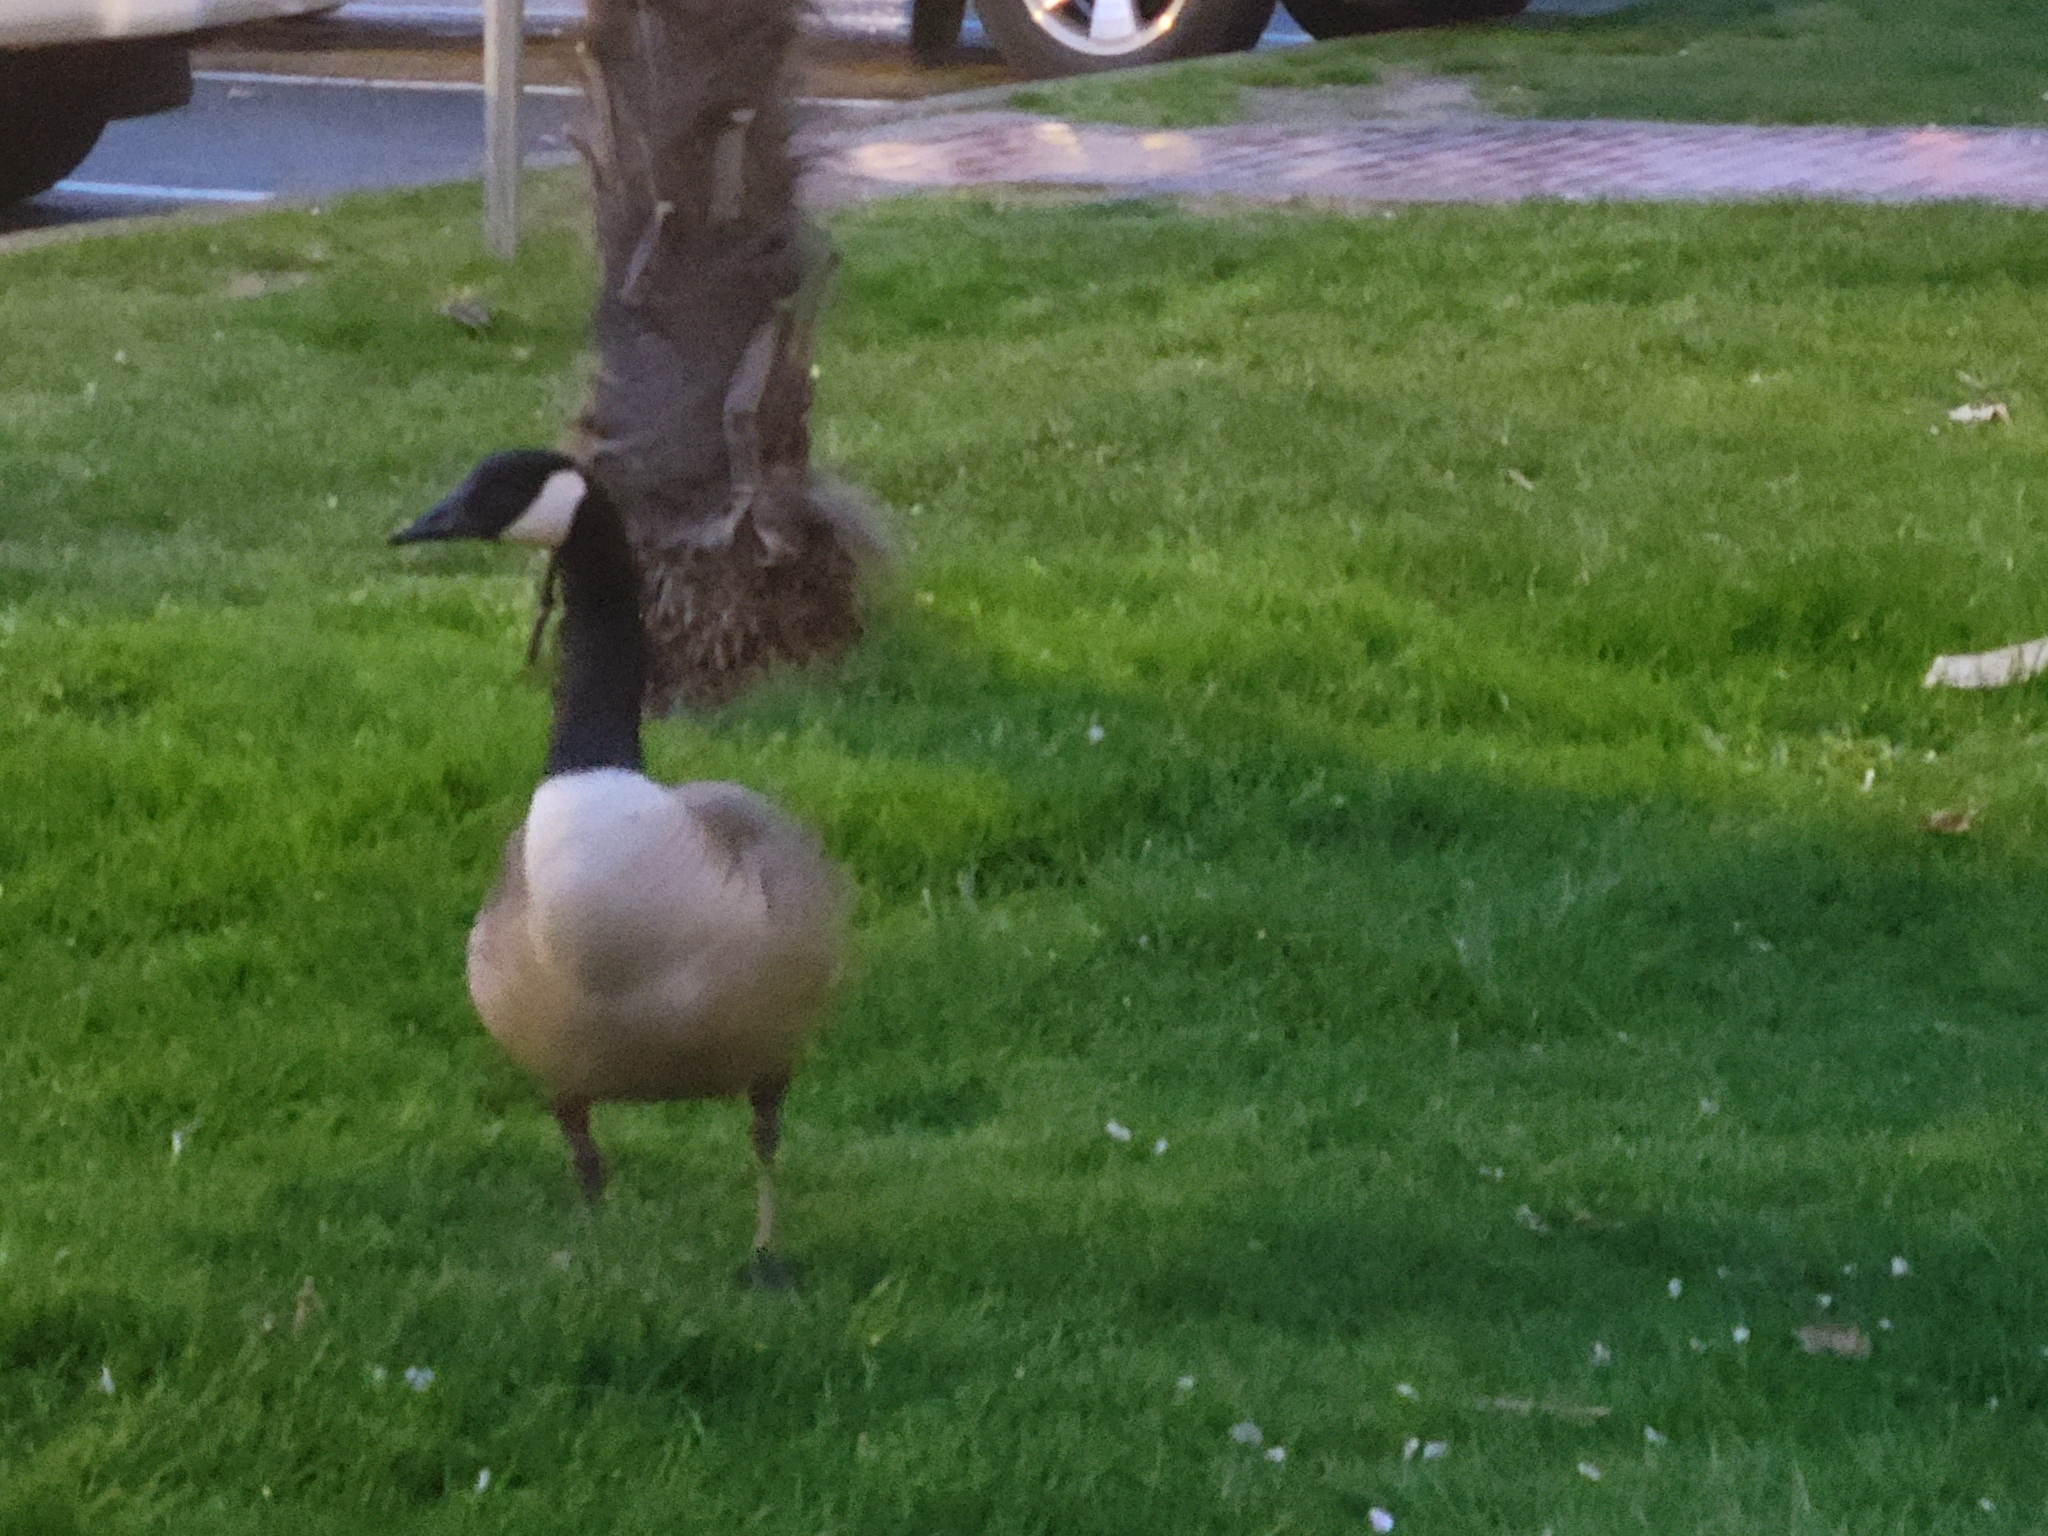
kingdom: Animalia
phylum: Chordata
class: Aves
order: Anseriformes
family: Anatidae
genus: Branta
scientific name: Branta canadensis
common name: Canada goose
